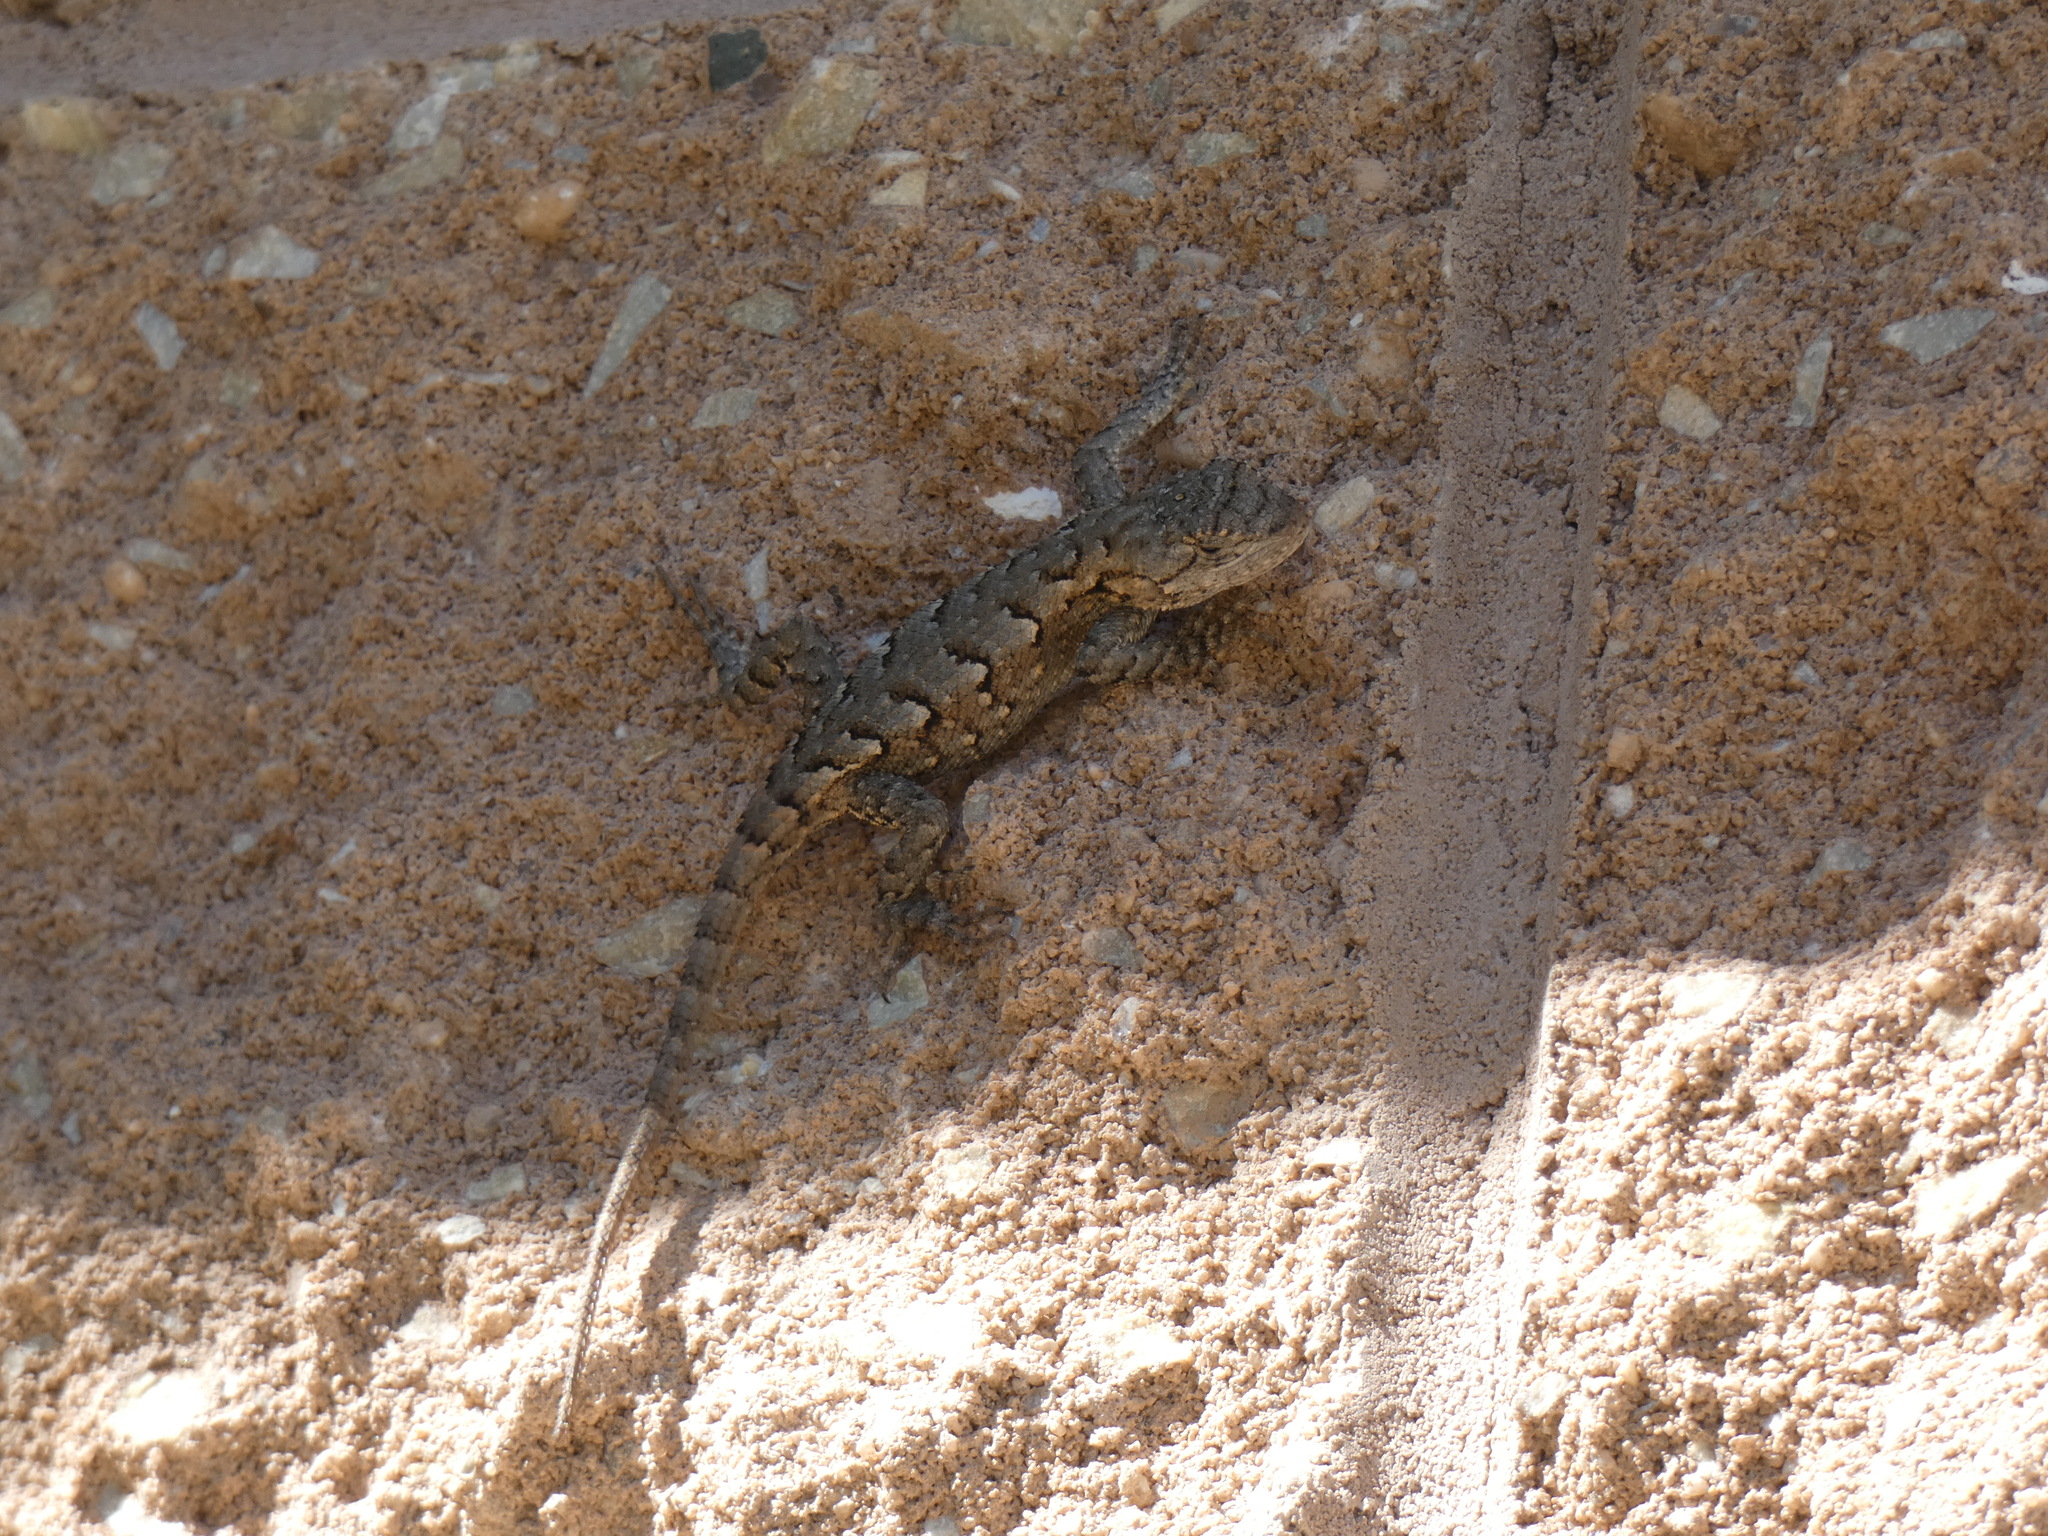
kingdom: Animalia
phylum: Chordata
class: Squamata
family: Phrynosomatidae
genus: Sceloporus
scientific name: Sceloporus undulatus
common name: Eastern fence lizard
